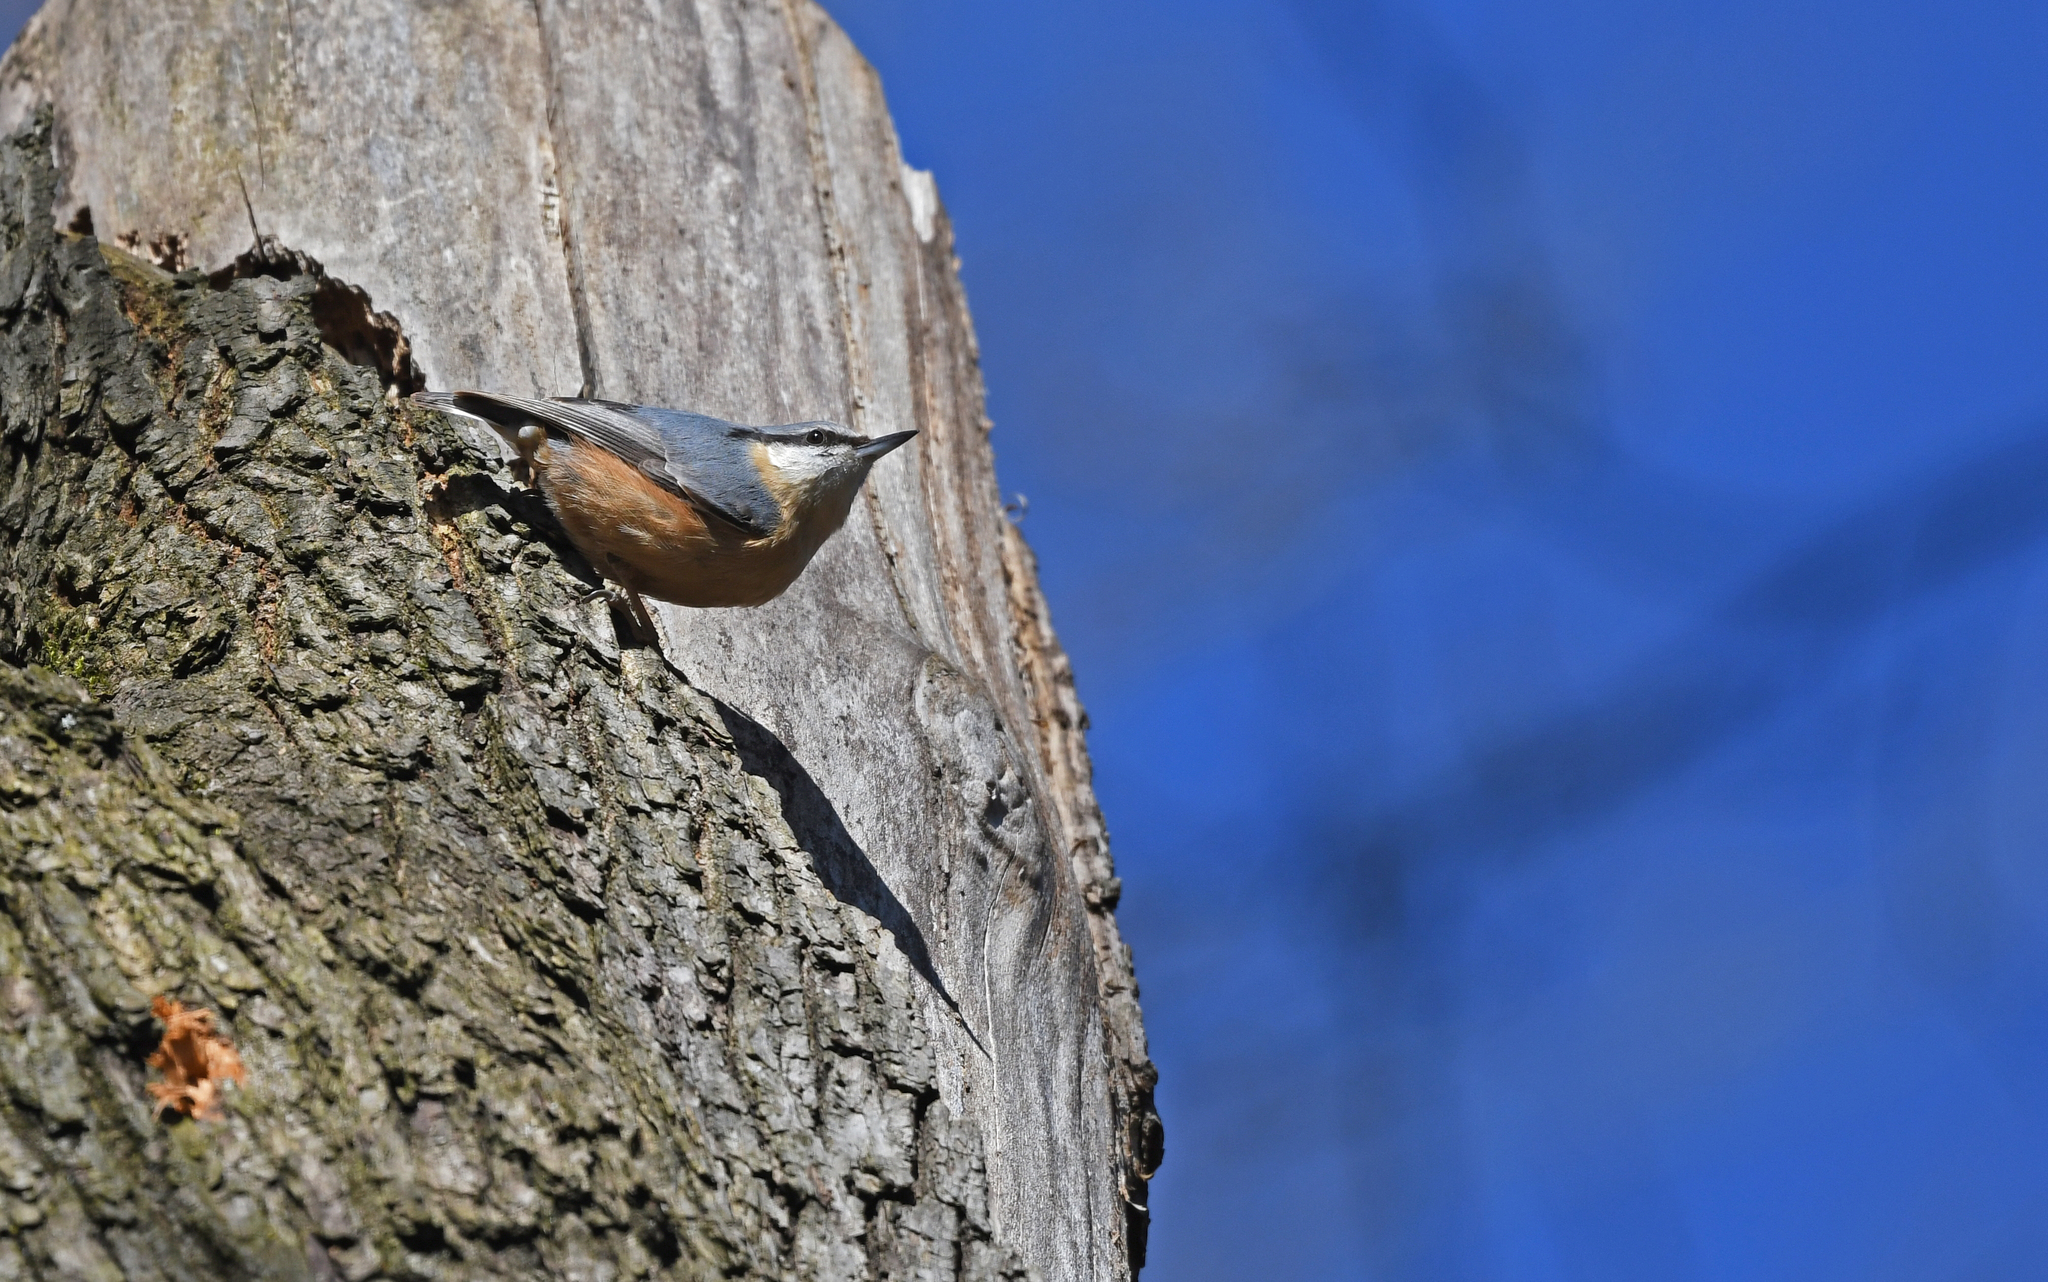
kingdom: Animalia
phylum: Chordata
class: Aves
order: Passeriformes
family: Sittidae
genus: Sitta
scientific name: Sitta europaea
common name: Eurasian nuthatch
